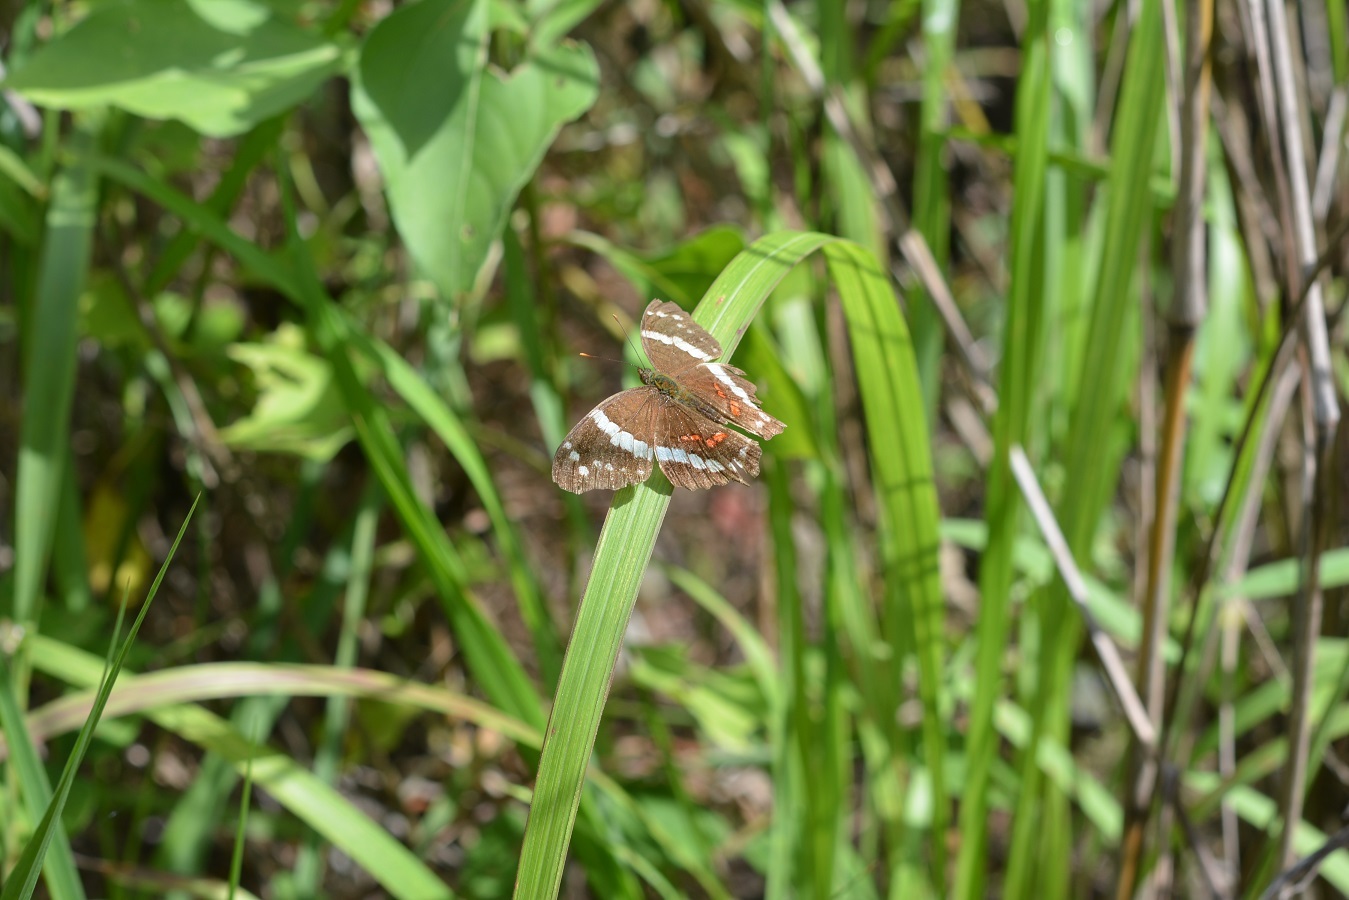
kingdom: Animalia
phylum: Arthropoda
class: Insecta
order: Lepidoptera
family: Nymphalidae
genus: Anartia
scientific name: Anartia fatima
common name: Banded peacock
